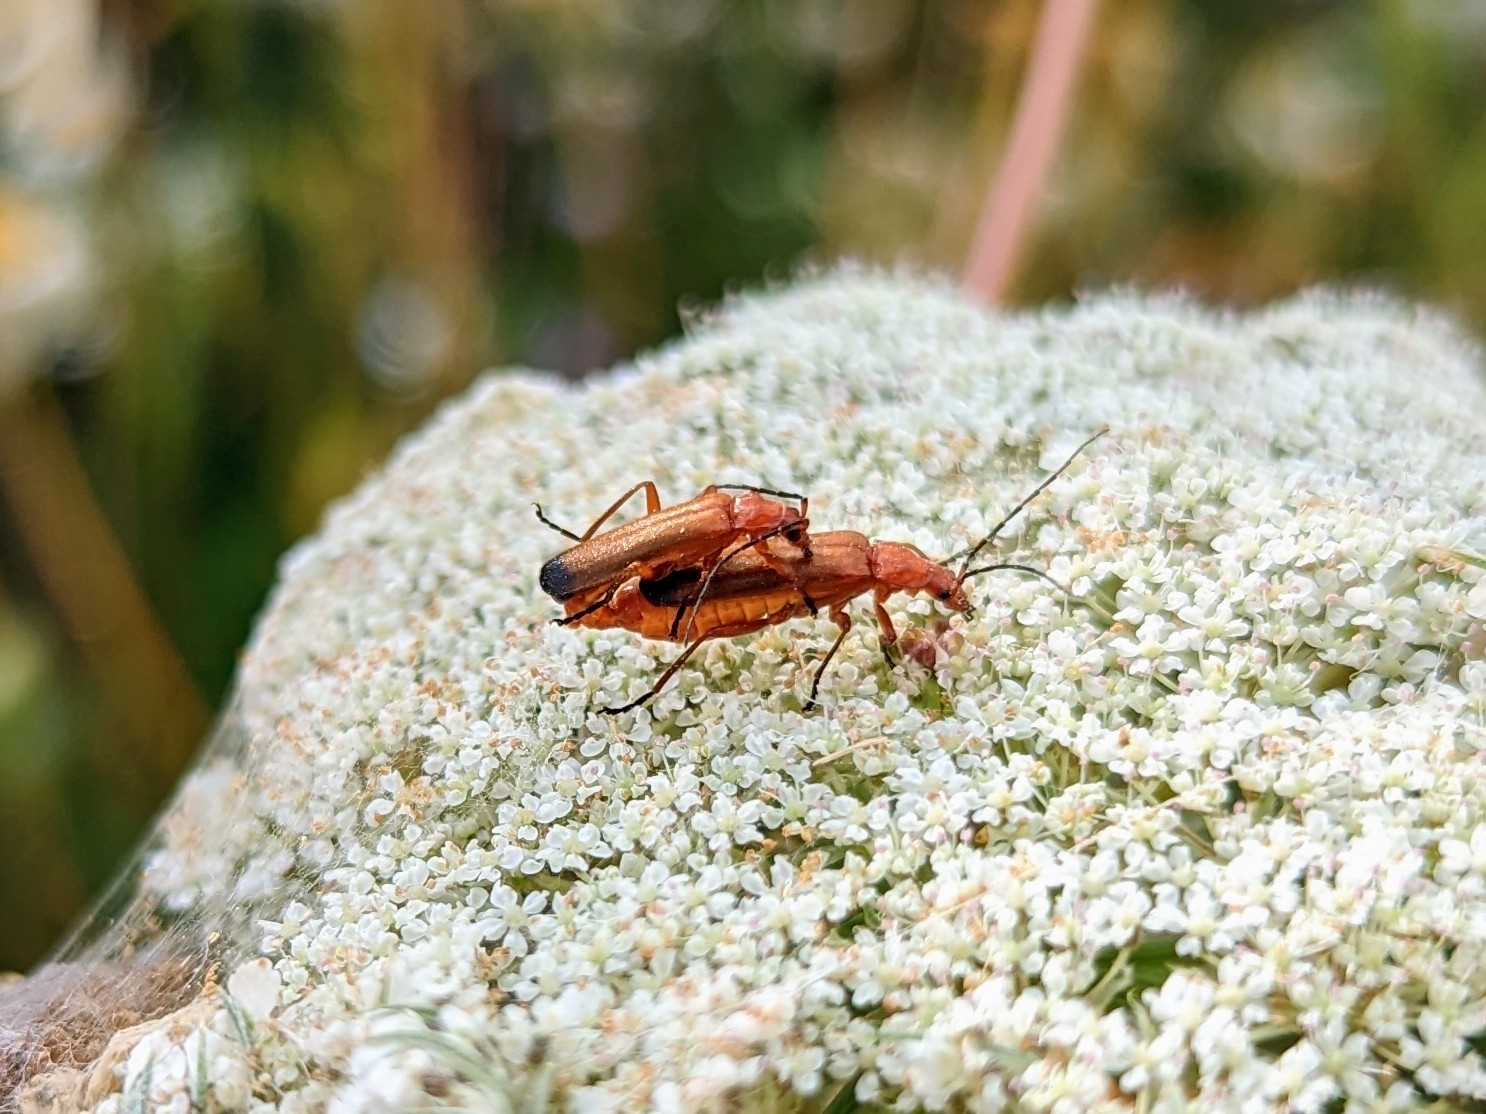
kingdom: Animalia
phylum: Arthropoda
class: Insecta
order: Coleoptera
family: Cantharidae
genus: Rhagonycha
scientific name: Rhagonycha fulva
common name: Common red soldier beetle
